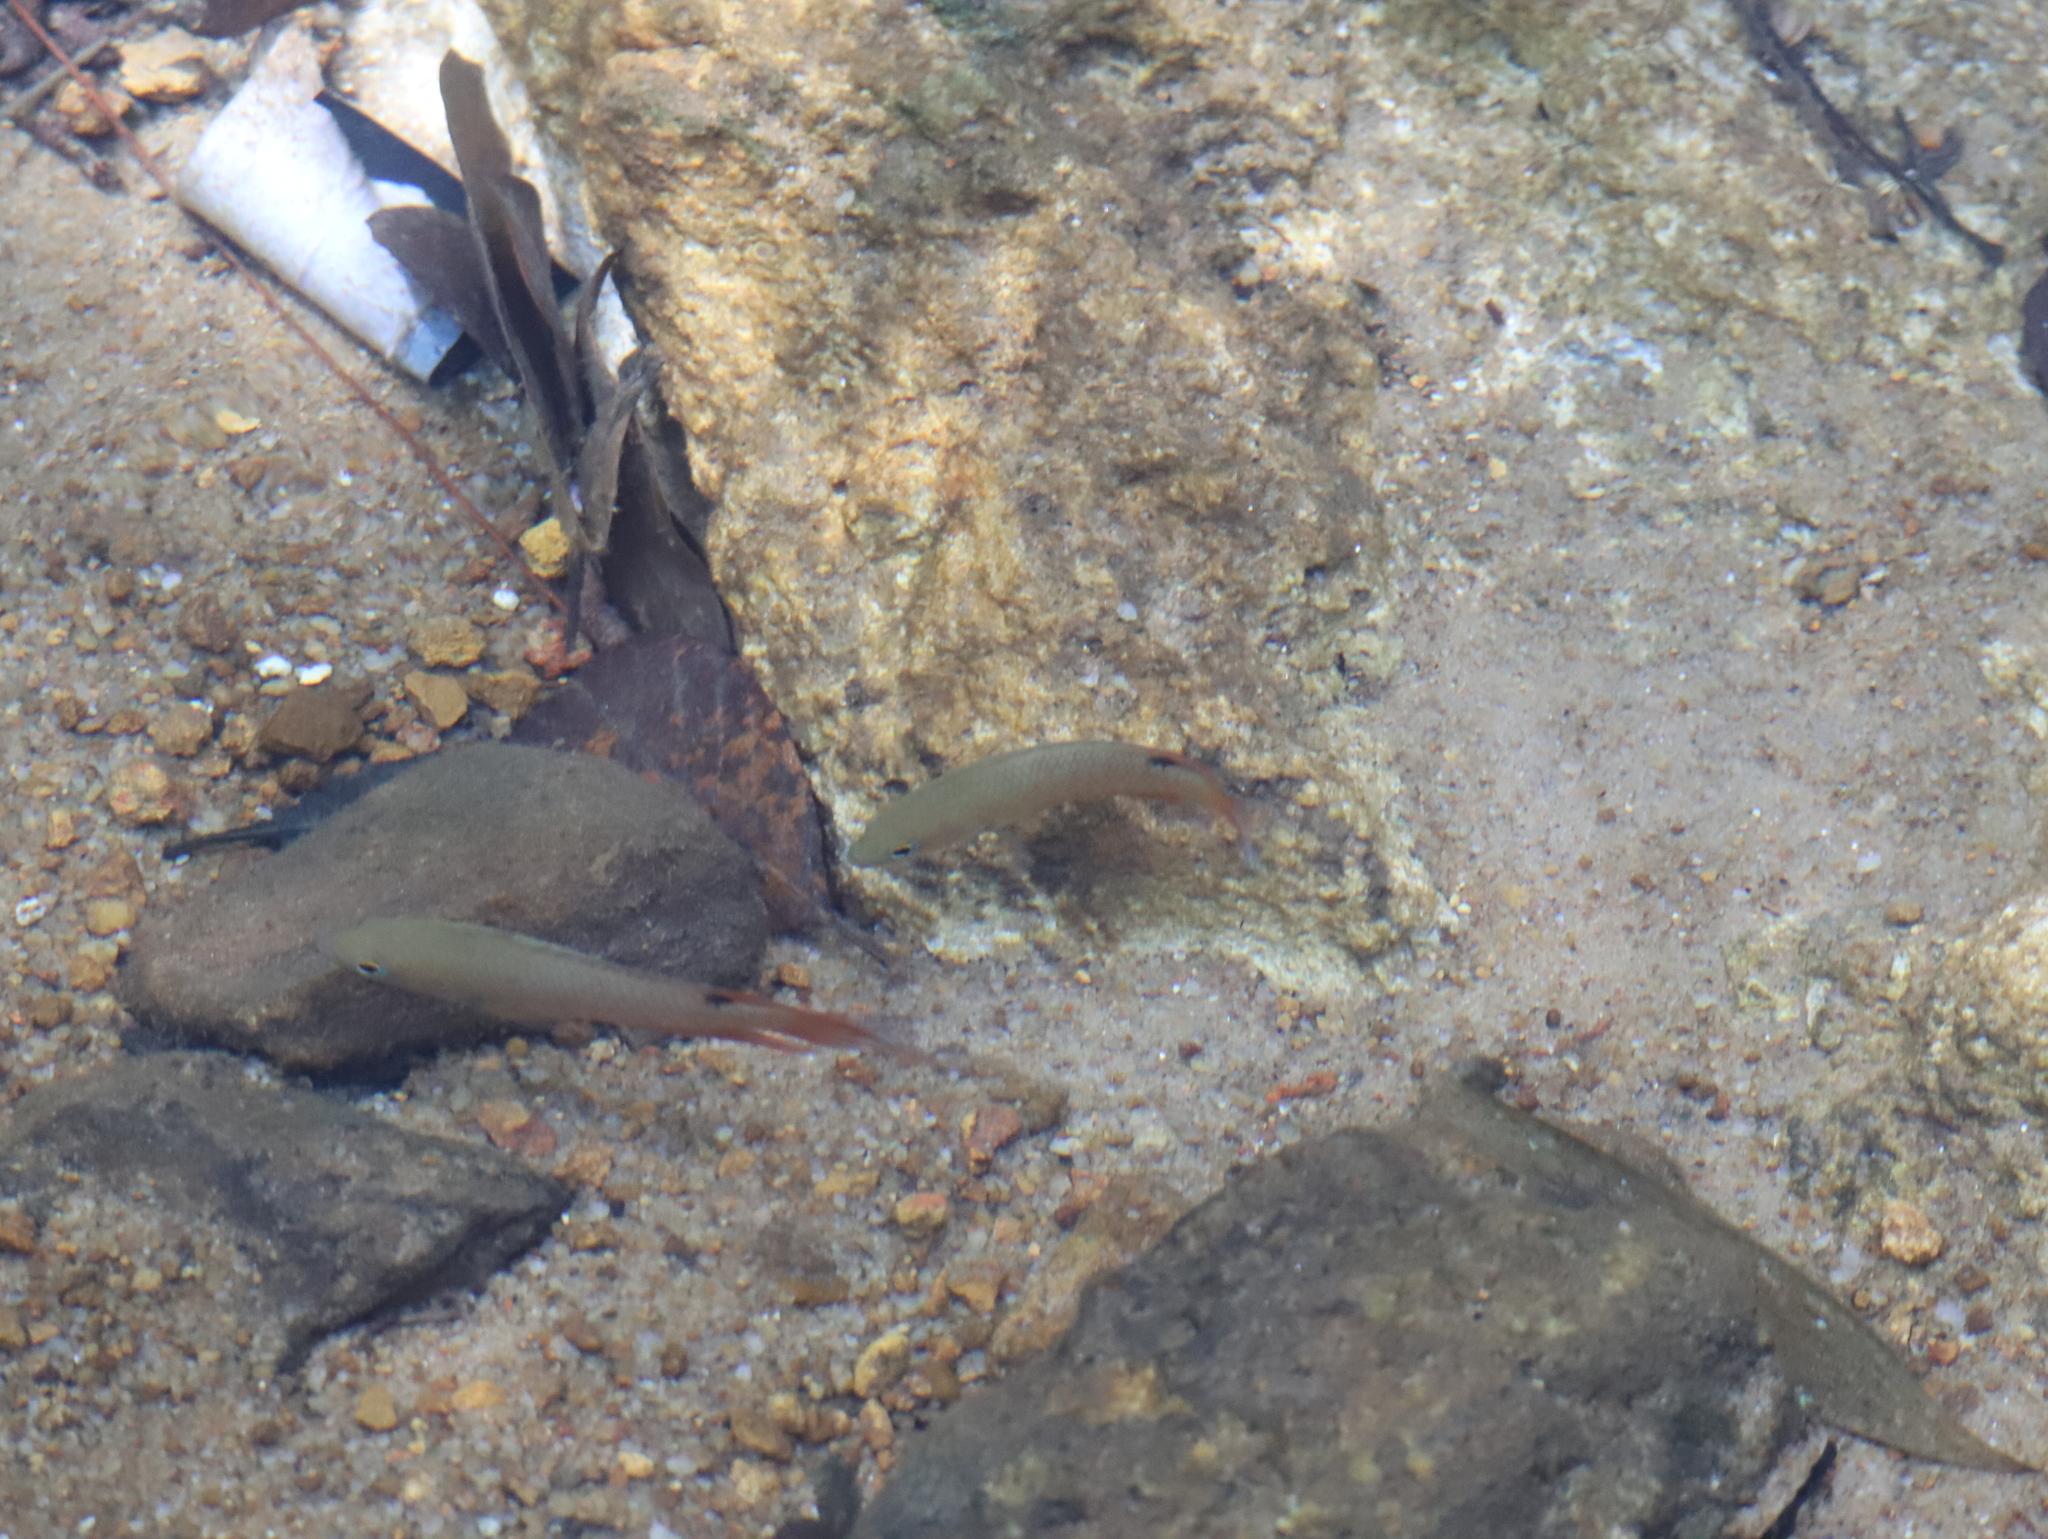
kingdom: Animalia
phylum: Chordata
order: Perciformes
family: Osphronemidae
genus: Belontia
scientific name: Belontia signata
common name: Combtail
